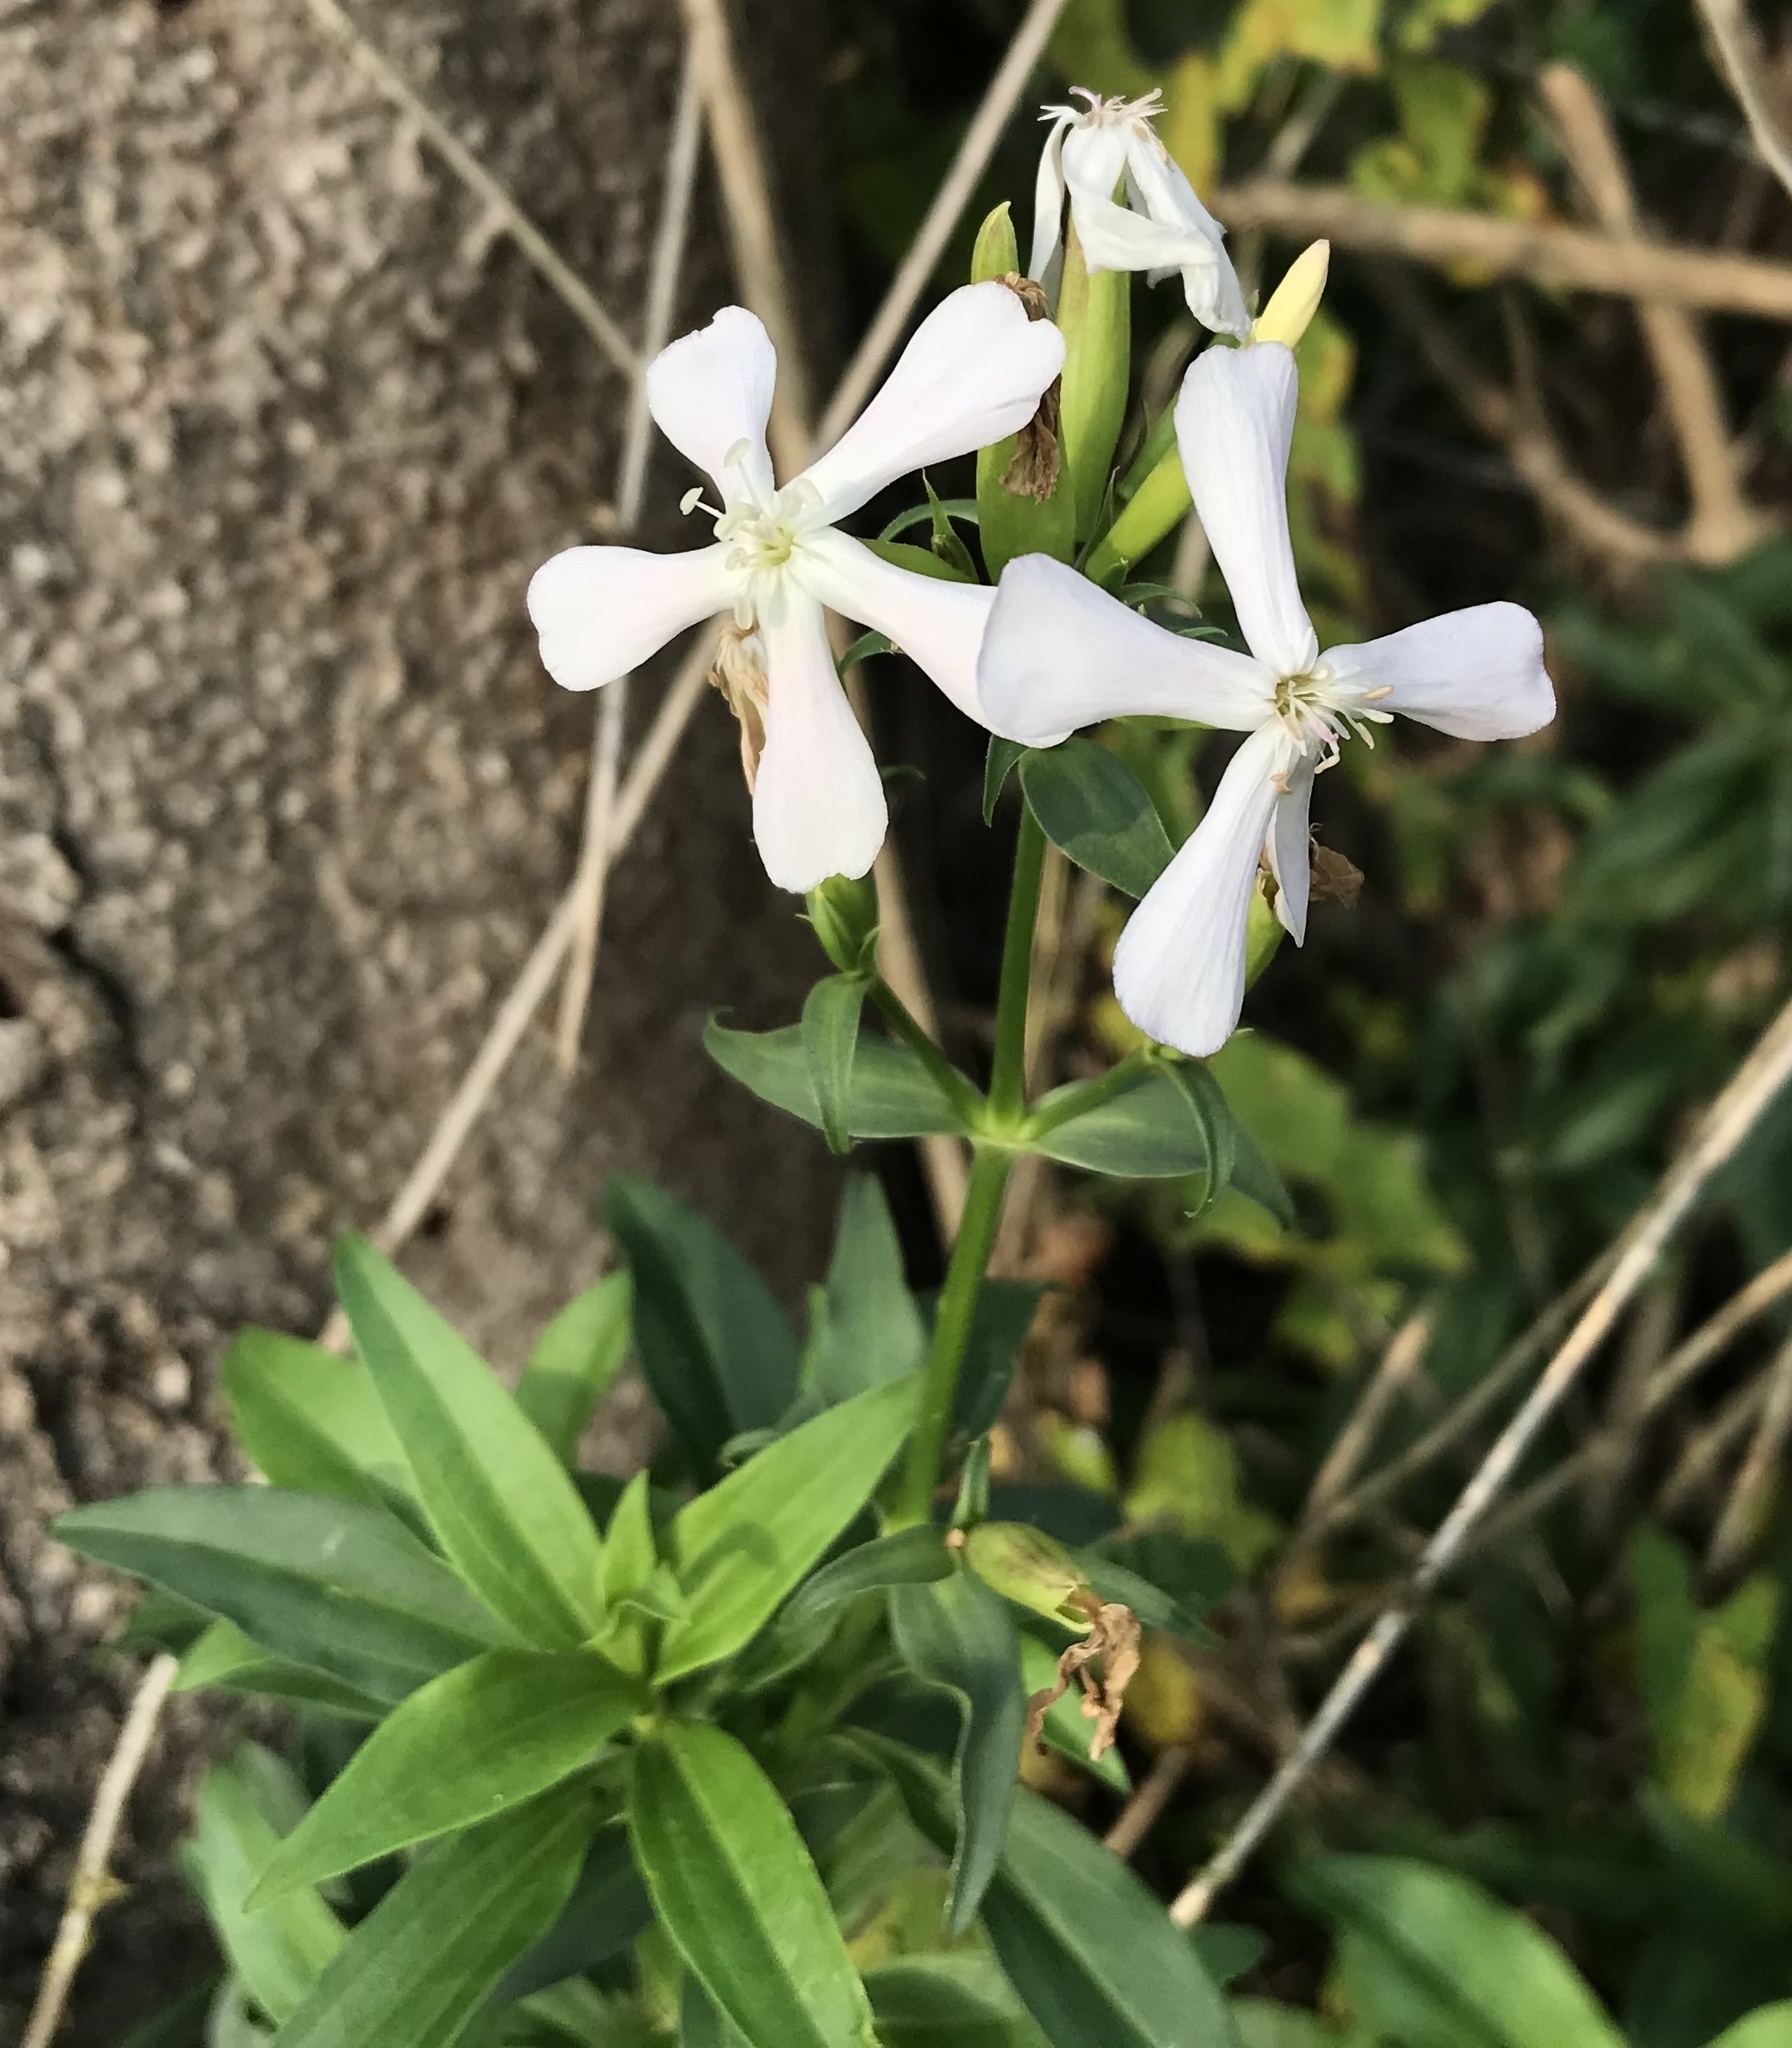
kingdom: Plantae
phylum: Tracheophyta
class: Magnoliopsida
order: Caryophyllales
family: Caryophyllaceae
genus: Saponaria
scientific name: Saponaria officinalis
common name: Soapwort
